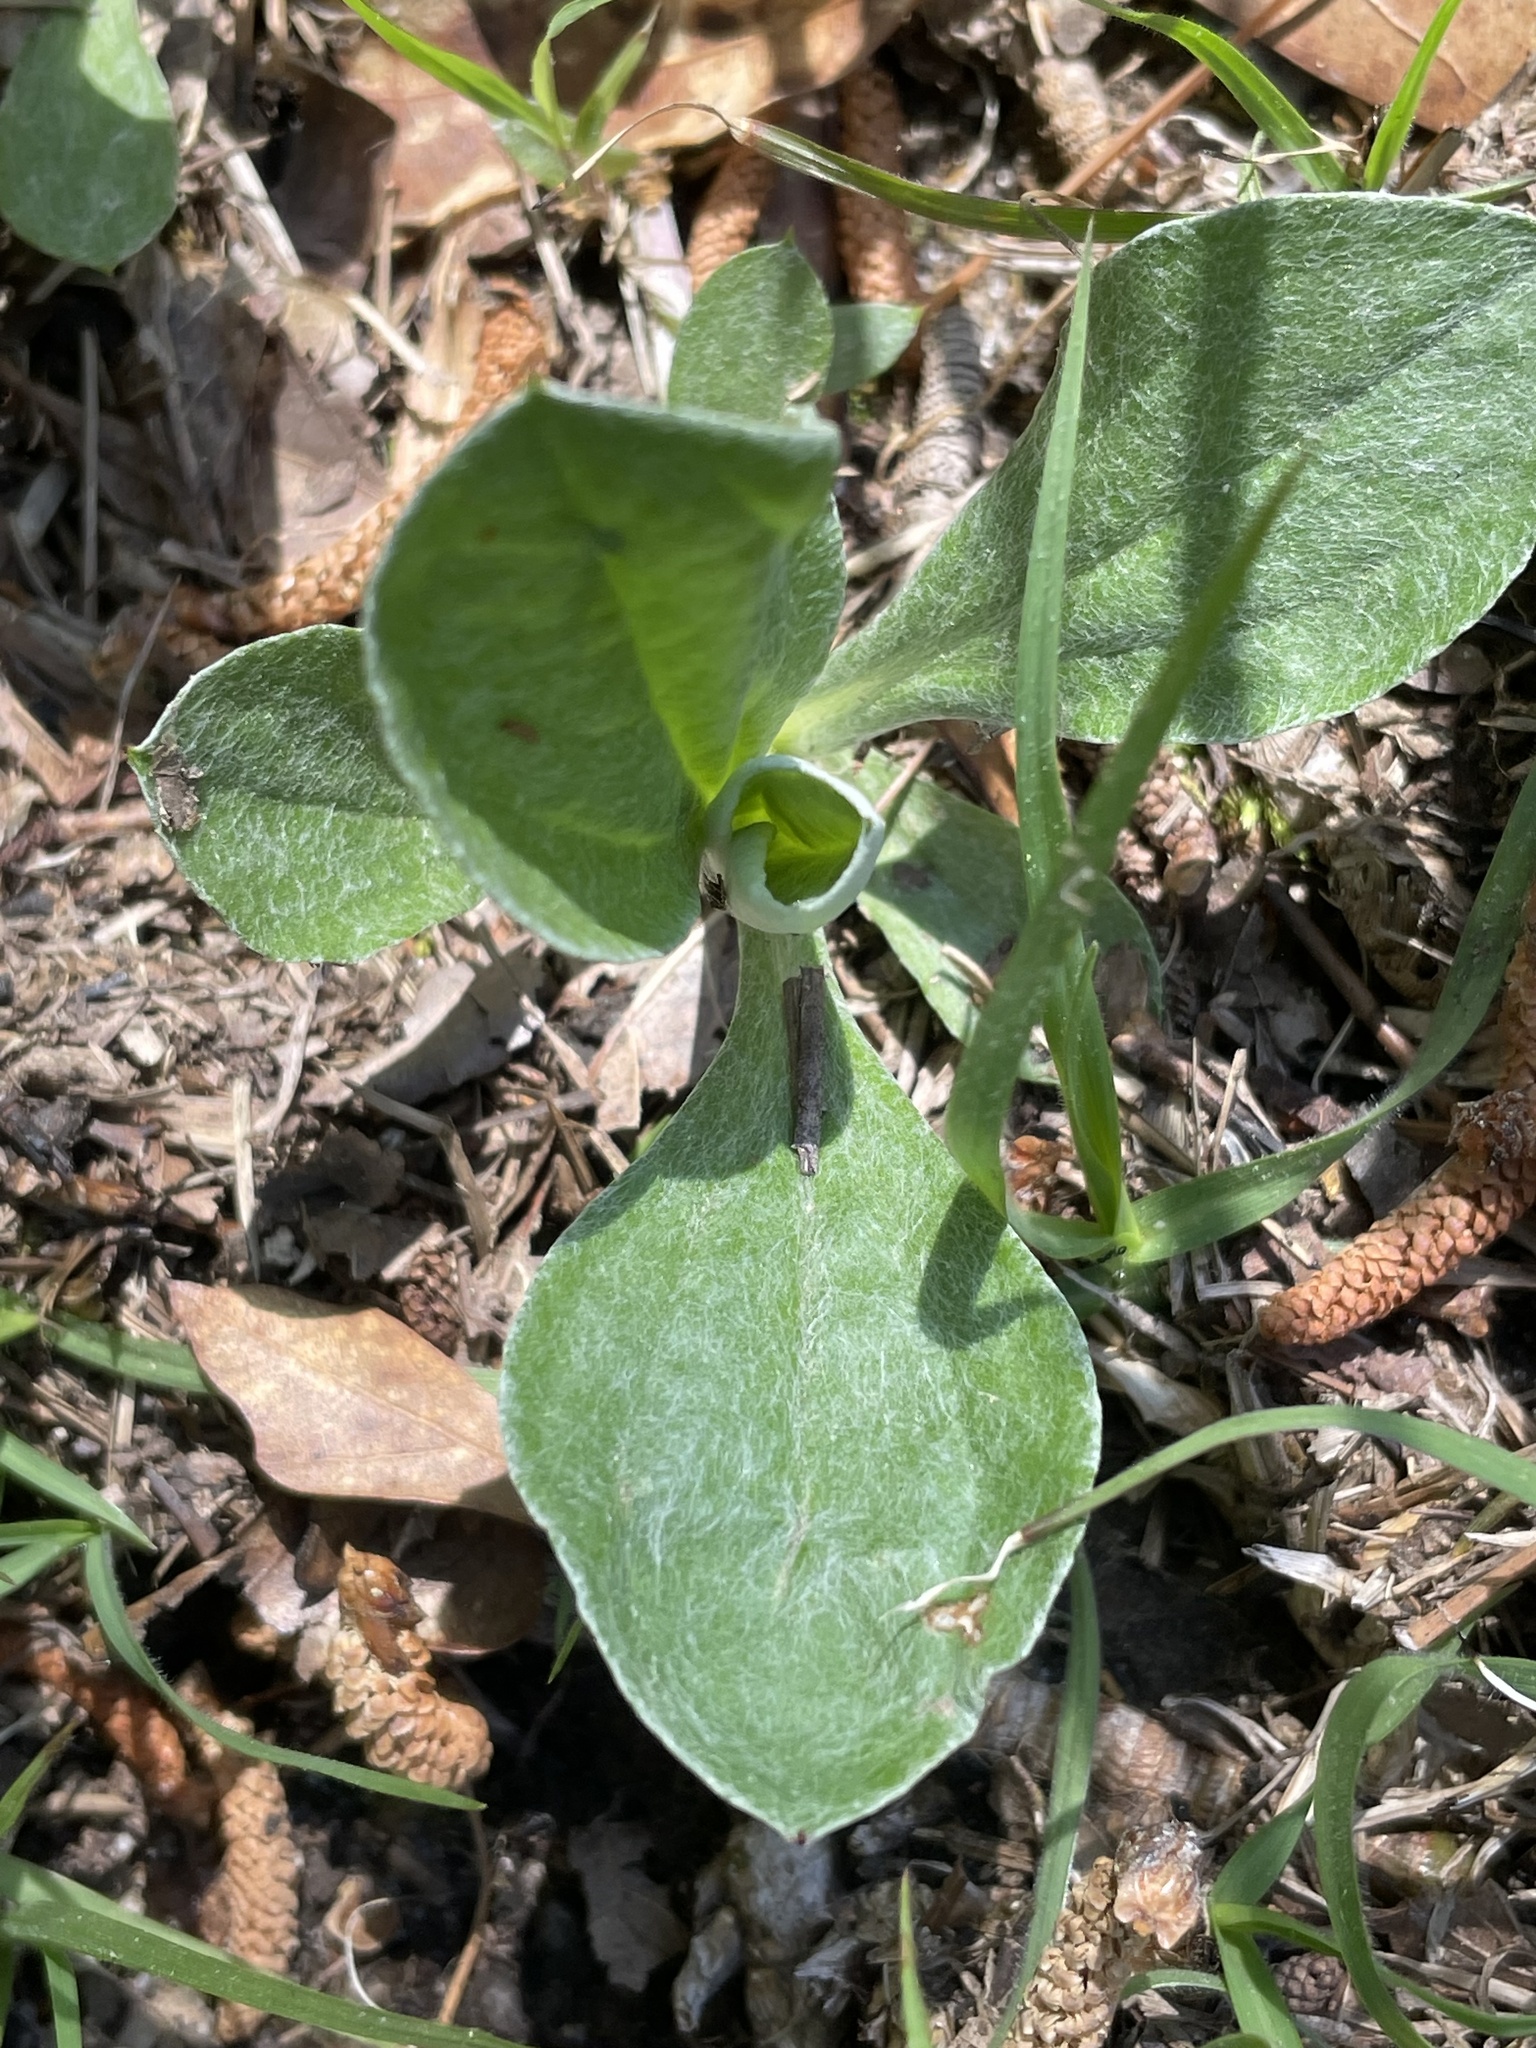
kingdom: Plantae
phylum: Tracheophyta
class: Magnoliopsida
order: Asterales
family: Asteraceae
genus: Antennaria
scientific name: Antennaria parlinii
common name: Parlin's pussytoes
